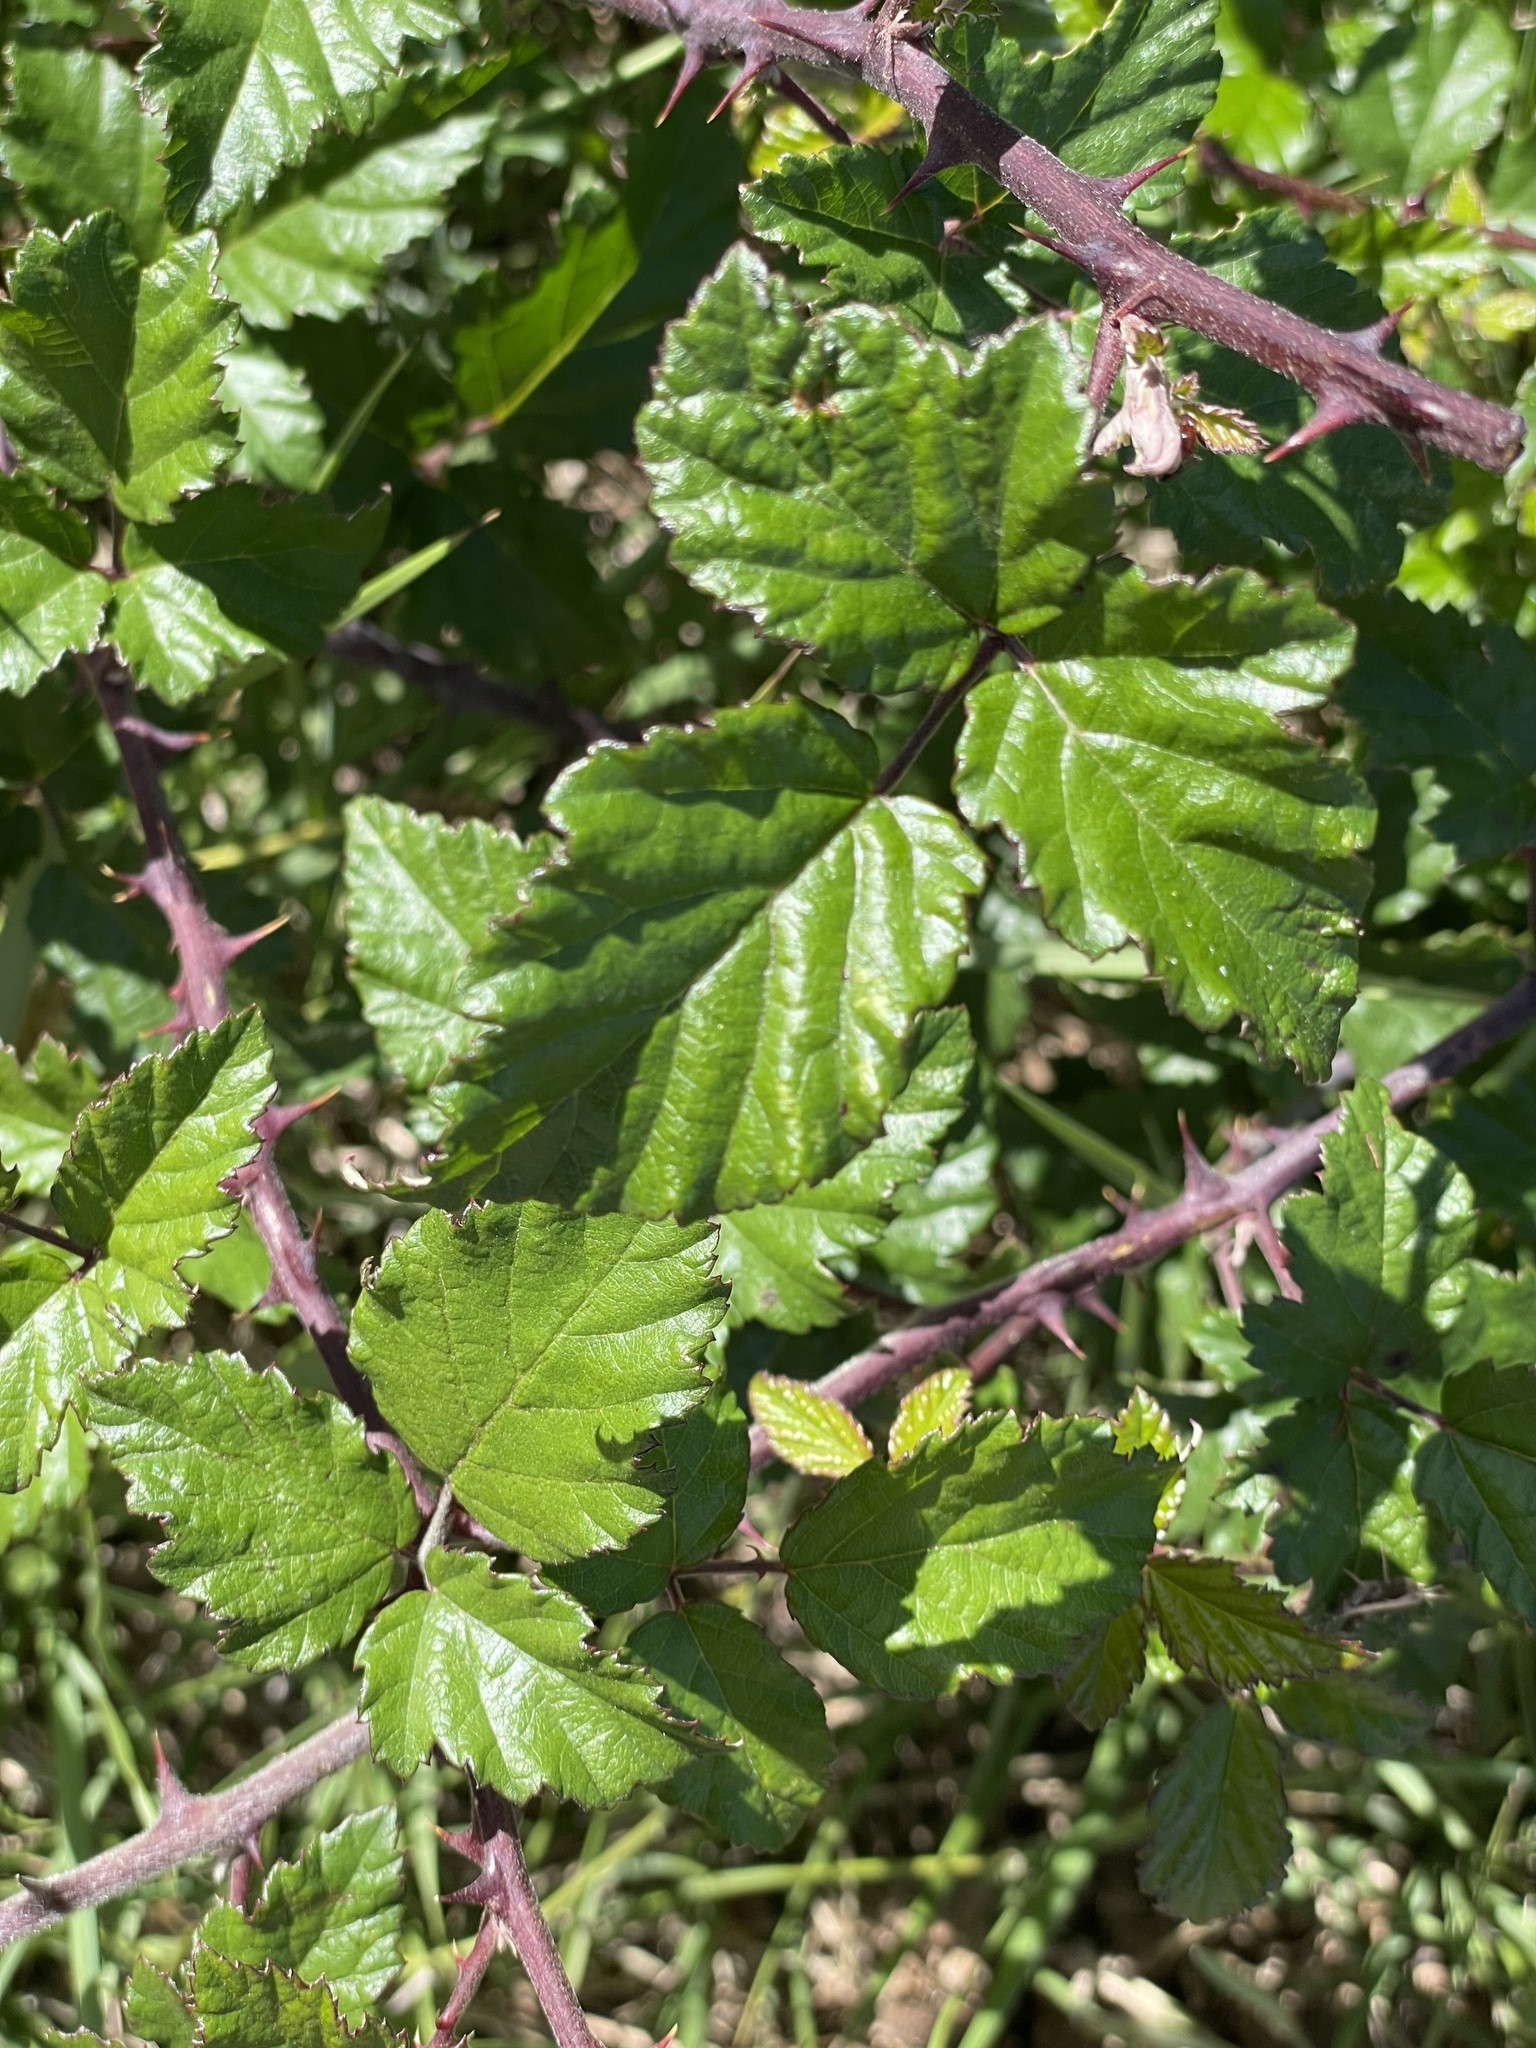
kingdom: Plantae
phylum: Tracheophyta
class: Magnoliopsida
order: Rosales
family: Rosaceae
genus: Rubus
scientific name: Rubus ulmifolius
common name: Elmleaf blackberry
